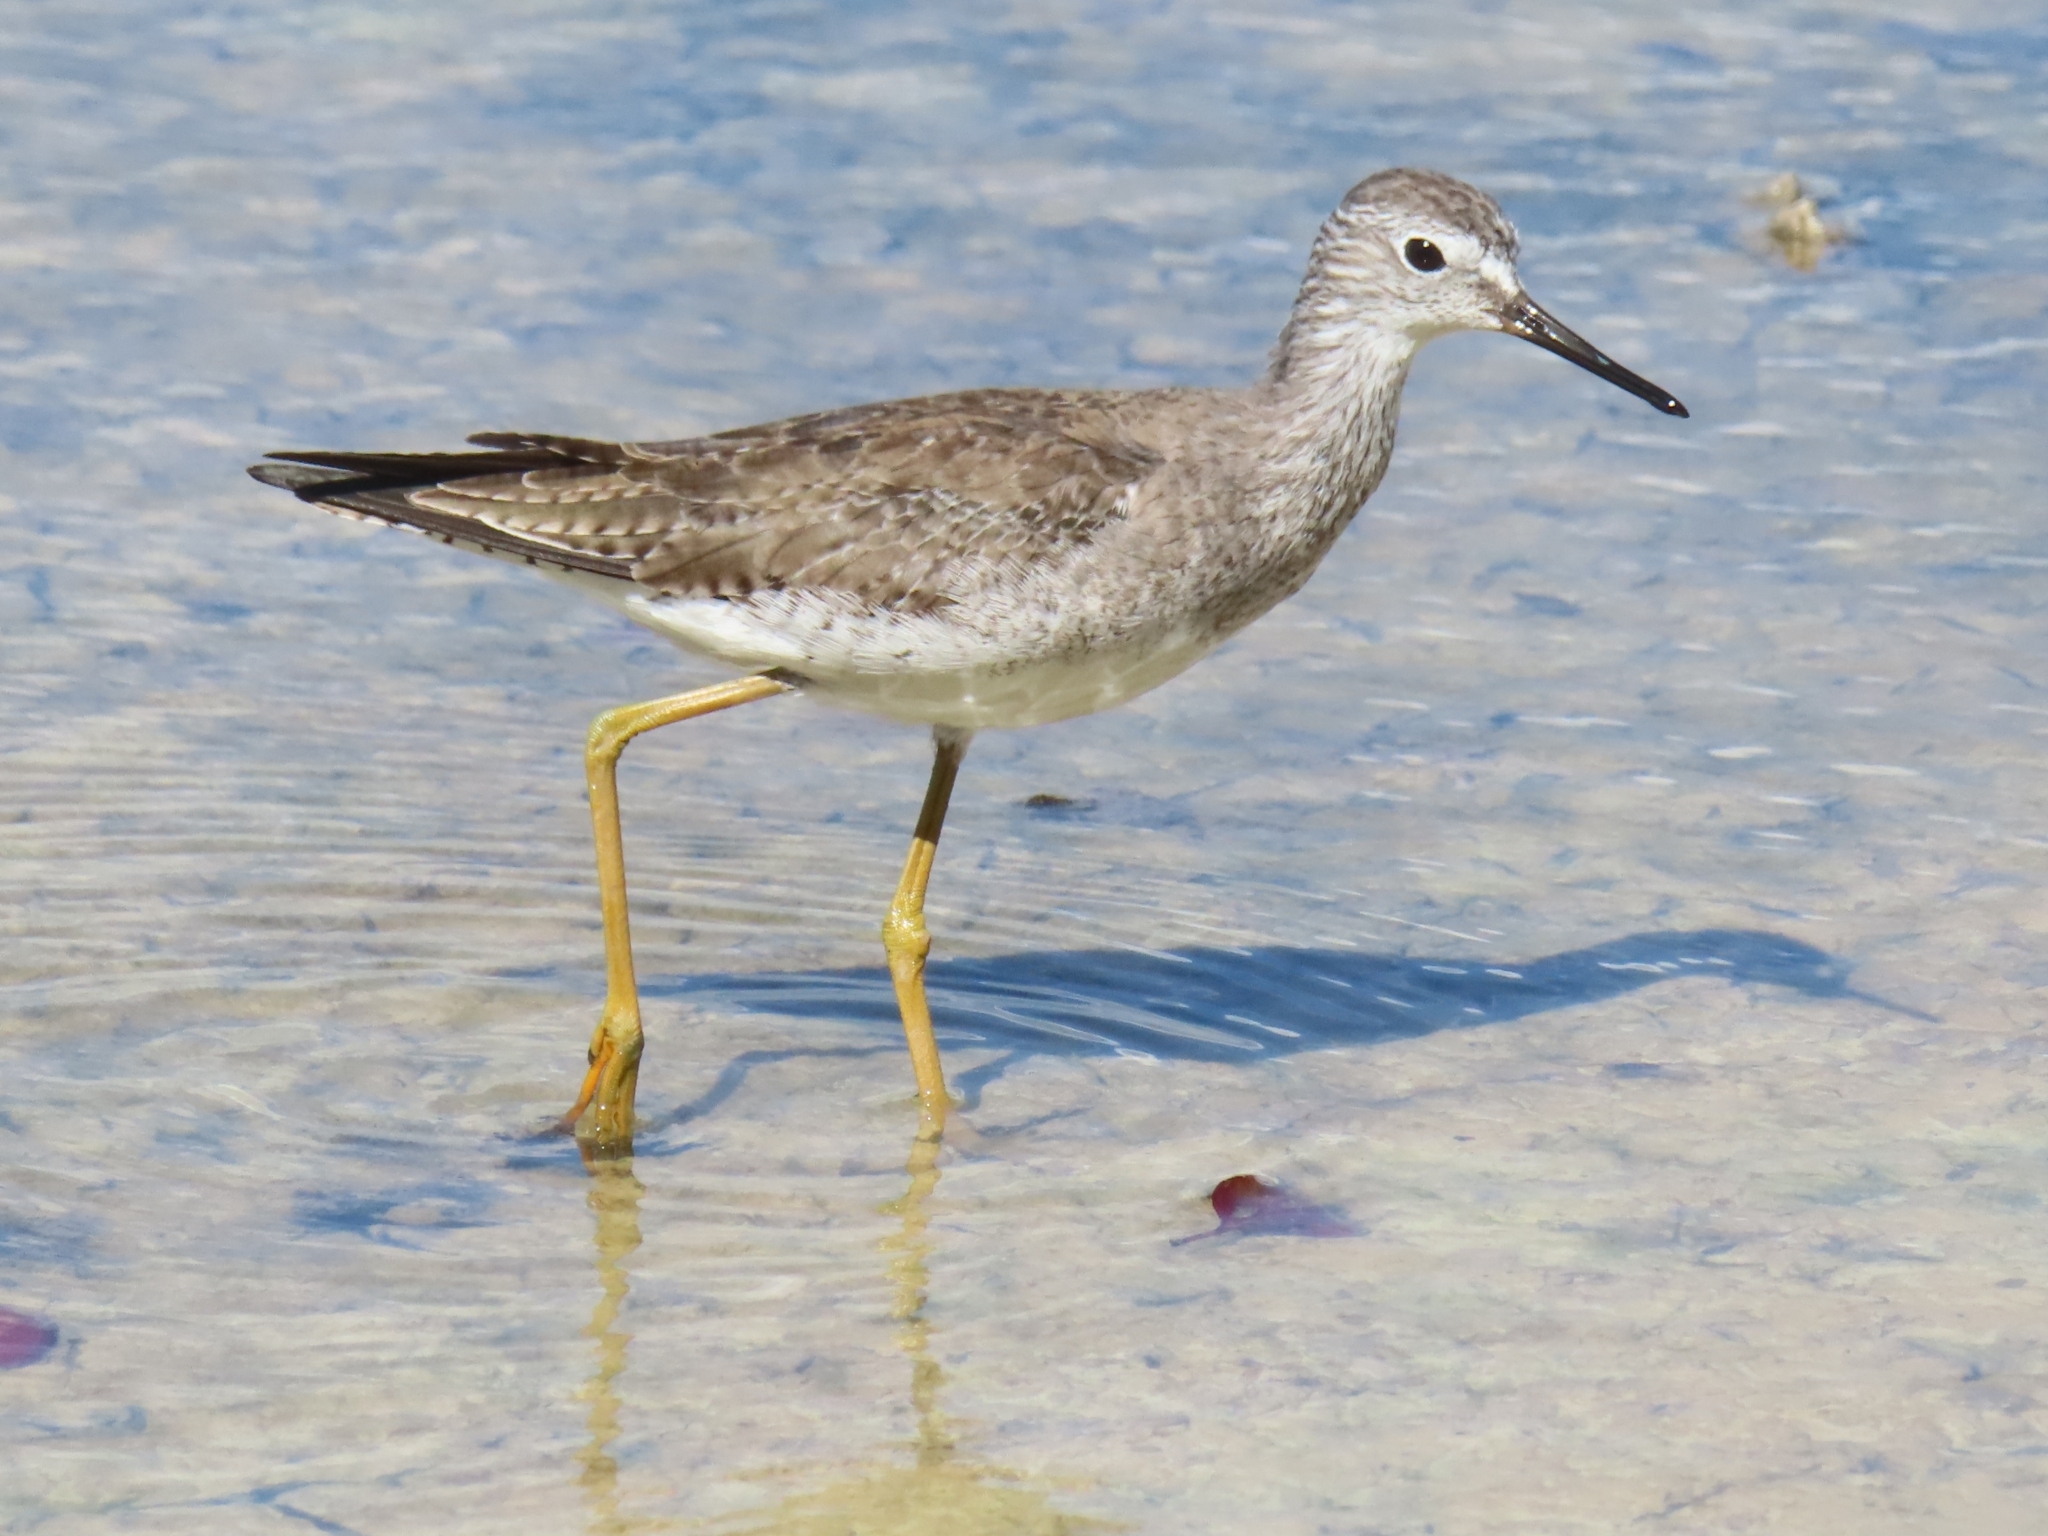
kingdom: Animalia
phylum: Chordata
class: Aves
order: Charadriiformes
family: Scolopacidae
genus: Tringa
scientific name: Tringa flavipes
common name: Lesser yellowlegs
